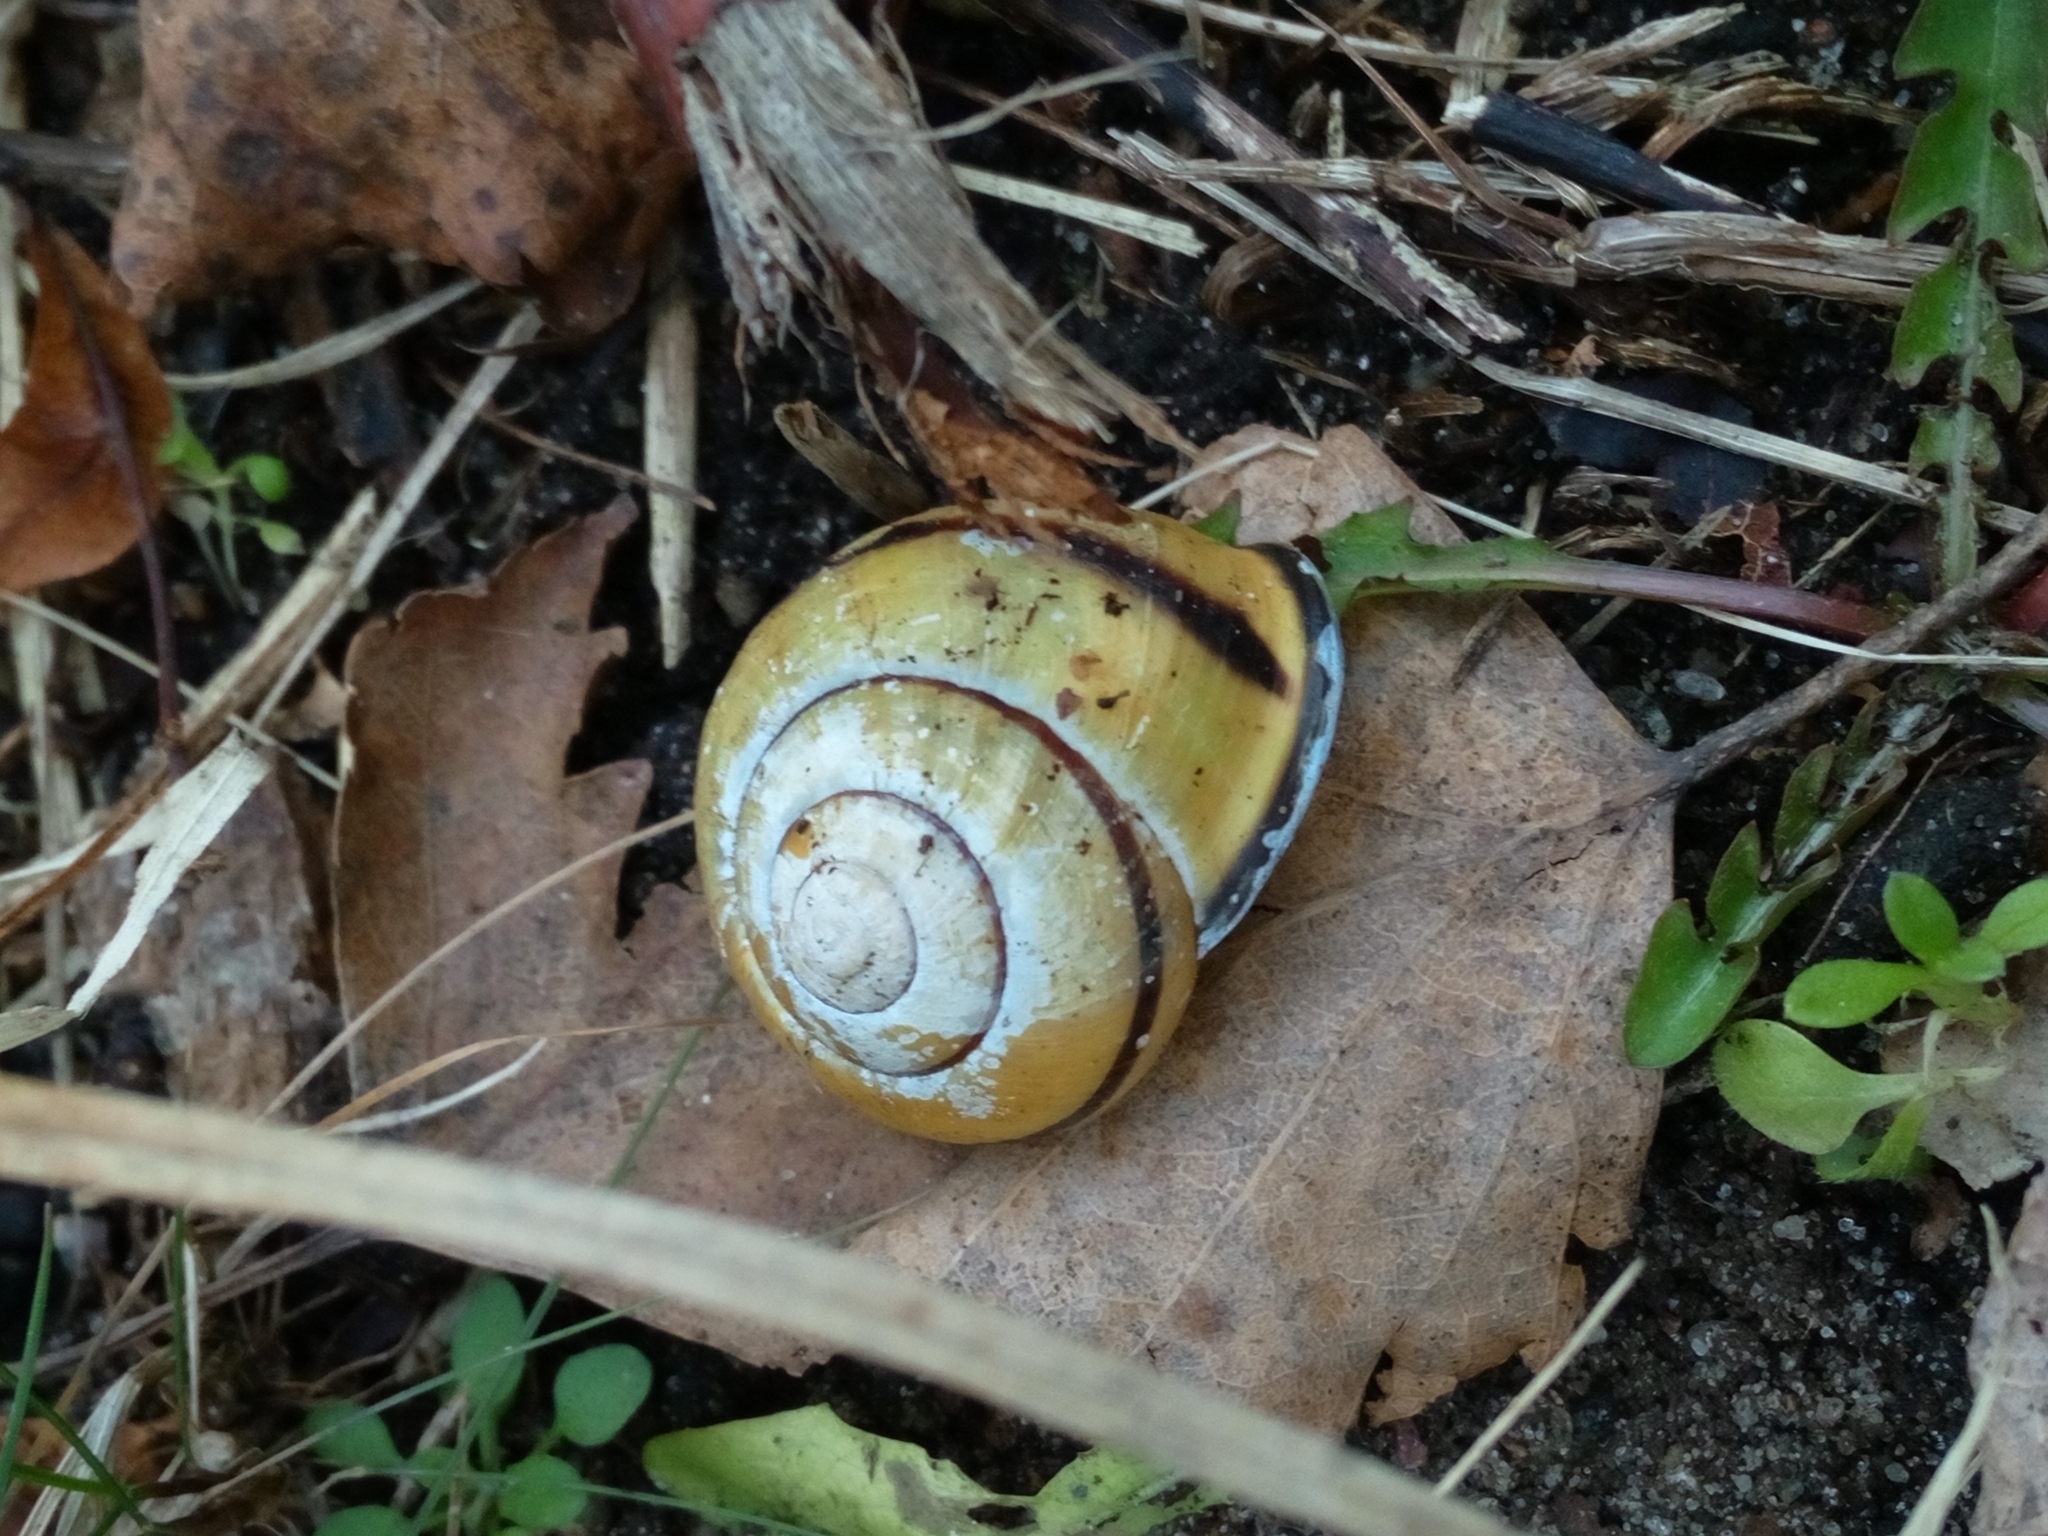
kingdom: Animalia
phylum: Mollusca
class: Gastropoda
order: Stylommatophora
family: Helicidae
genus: Cepaea
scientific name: Cepaea nemoralis
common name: Grovesnail
